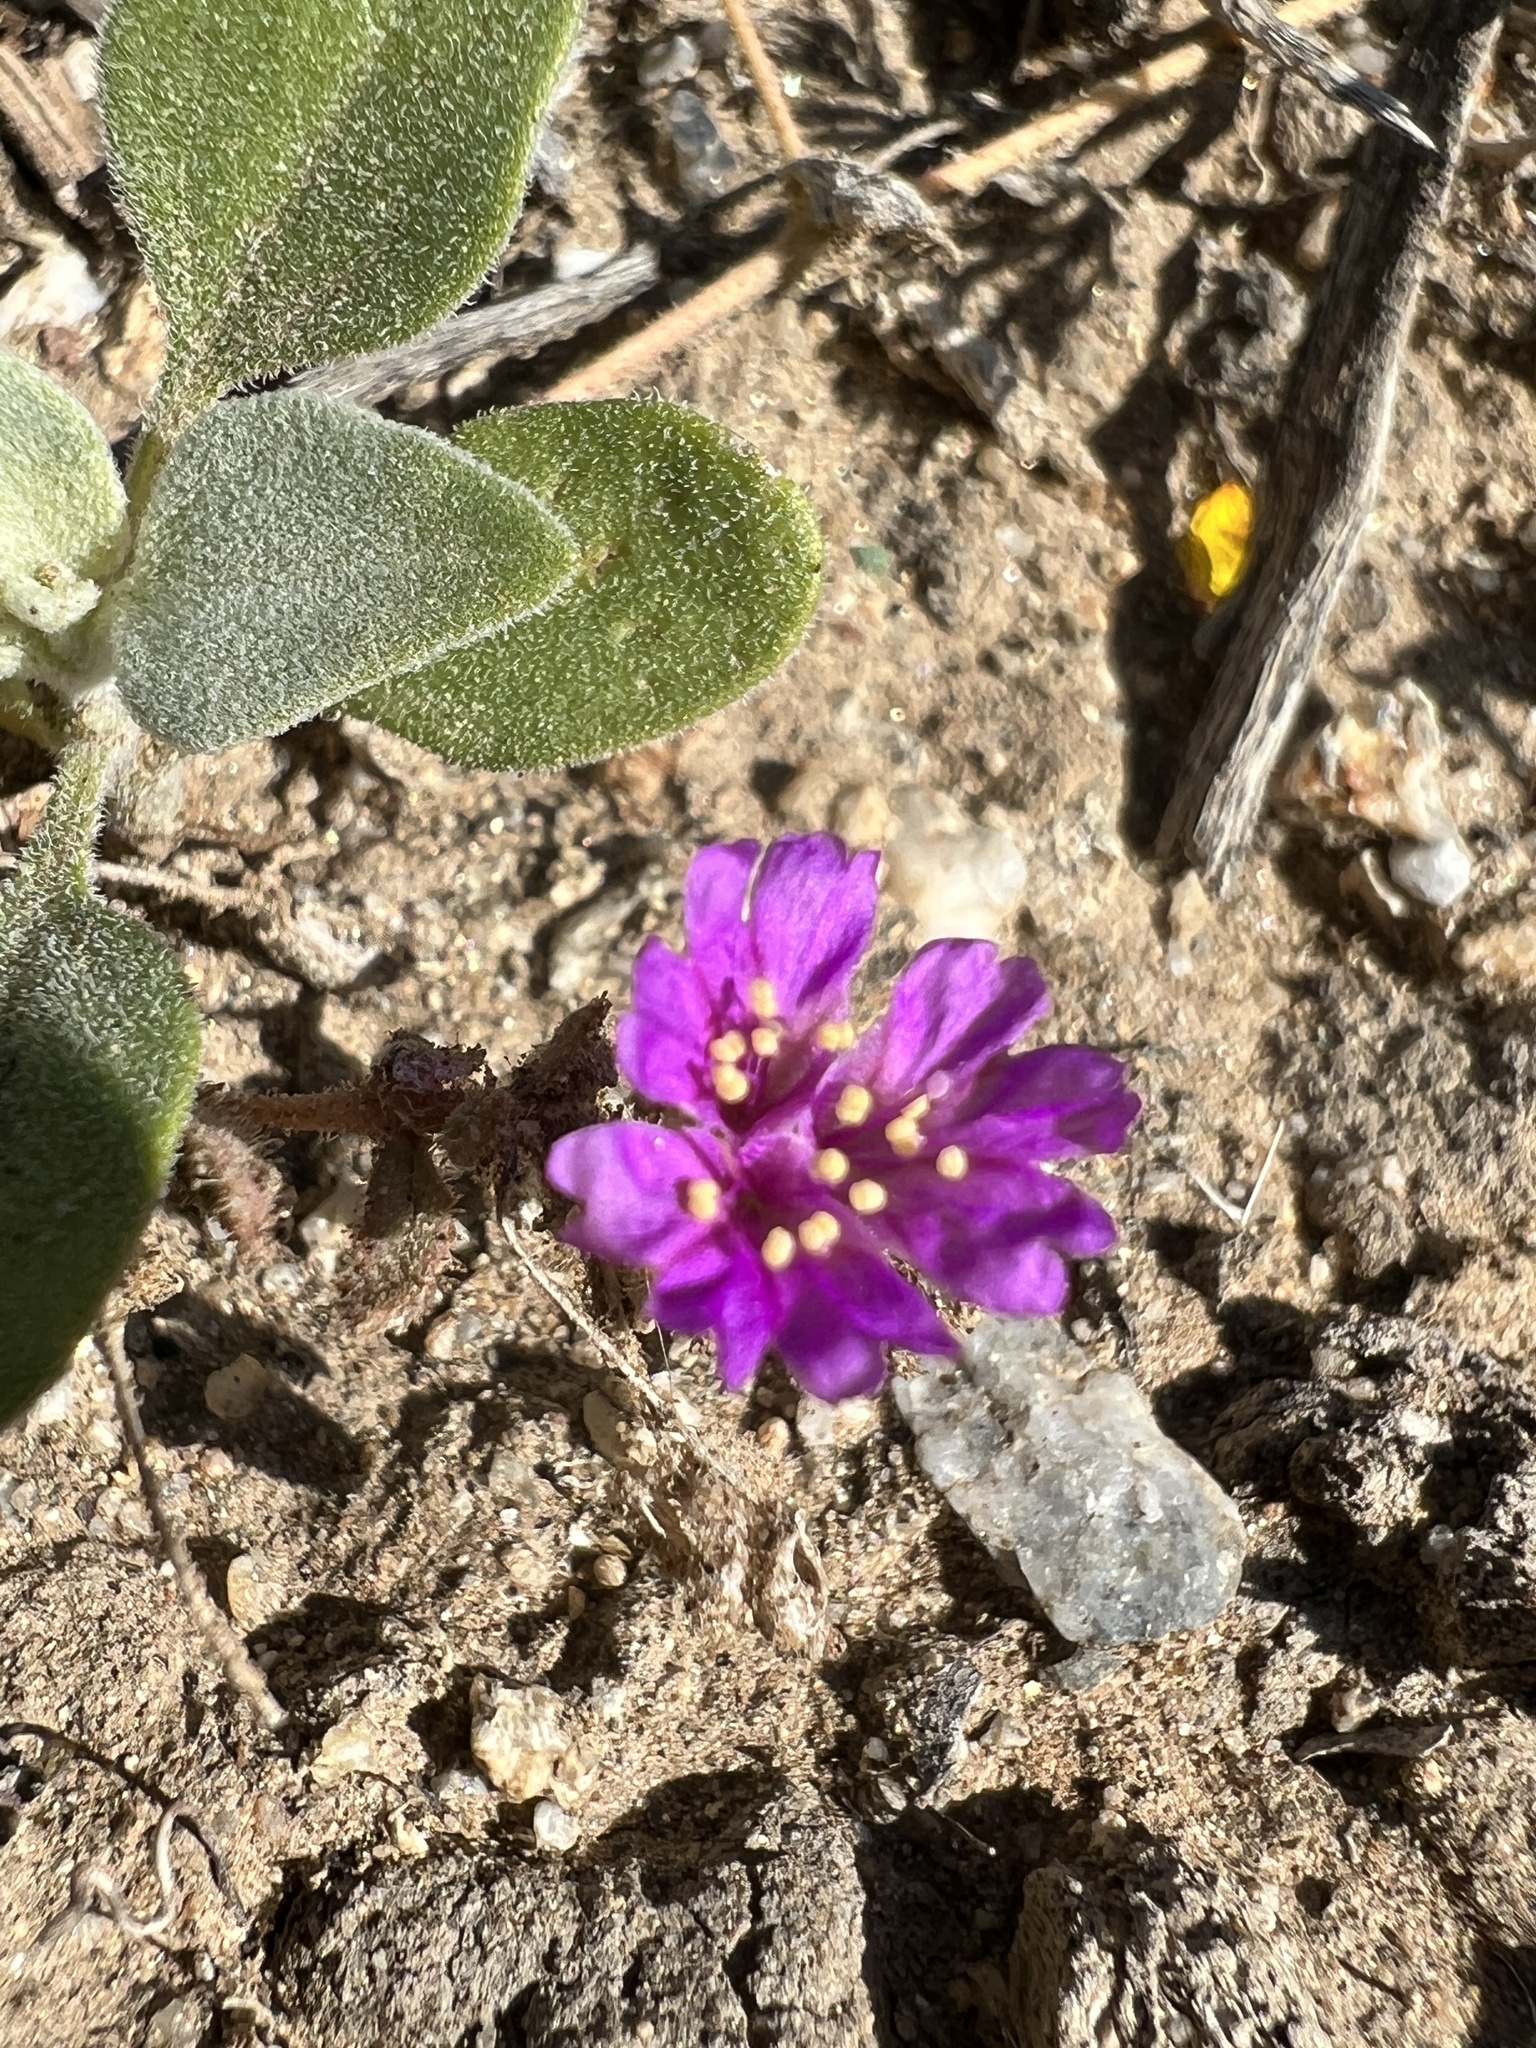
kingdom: Plantae
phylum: Tracheophyta
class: Magnoliopsida
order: Caryophyllales
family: Nyctaginaceae
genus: Allionia
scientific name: Allionia incarnata
